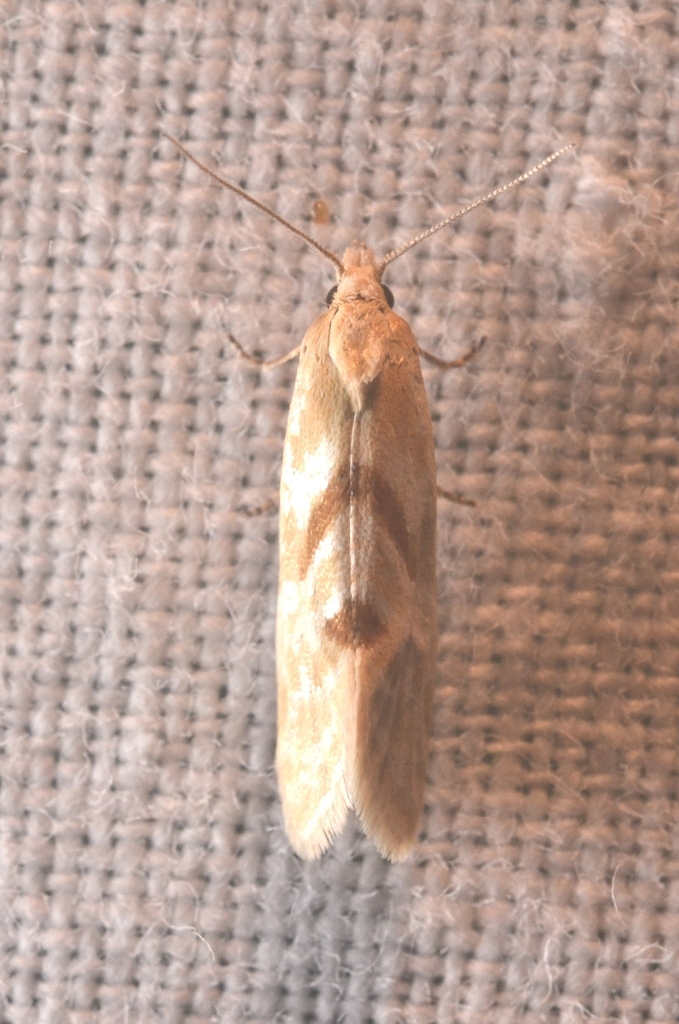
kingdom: Animalia
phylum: Arthropoda
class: Insecta
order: Lepidoptera
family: Tortricidae
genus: Aethes
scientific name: Aethes smeathmanniana
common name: Yarrow conch
